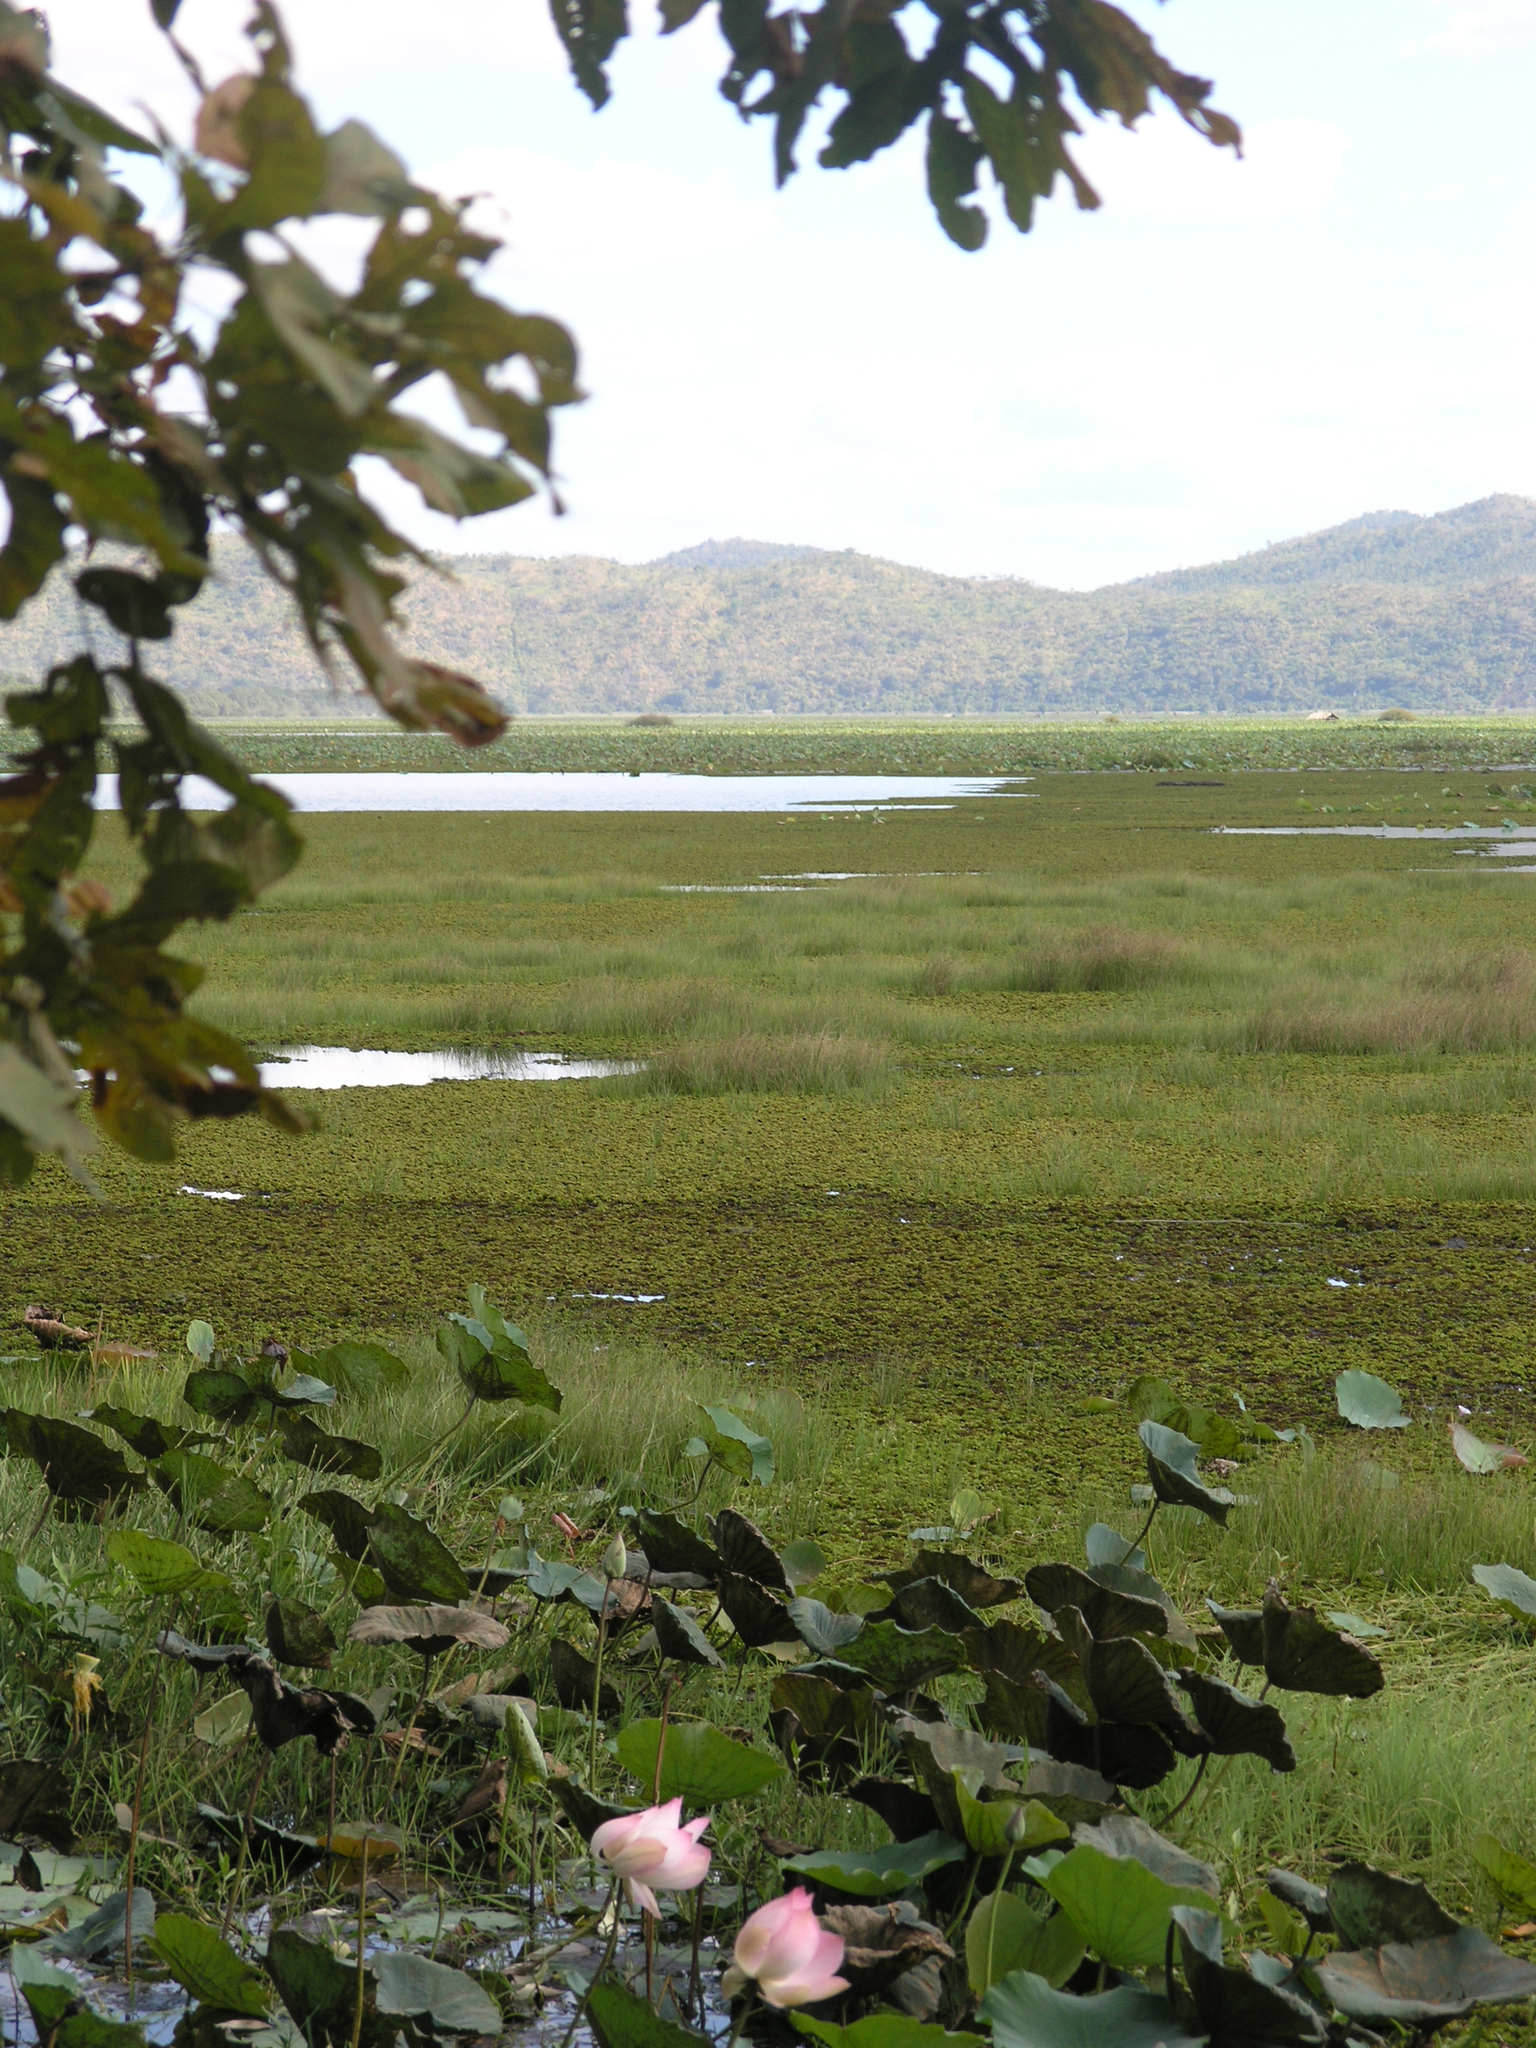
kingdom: Plantae
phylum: Tracheophyta
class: Magnoliopsida
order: Proteales
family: Nelumbonaceae
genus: Nelumbo
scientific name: Nelumbo nucifera
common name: Sacred lotus
